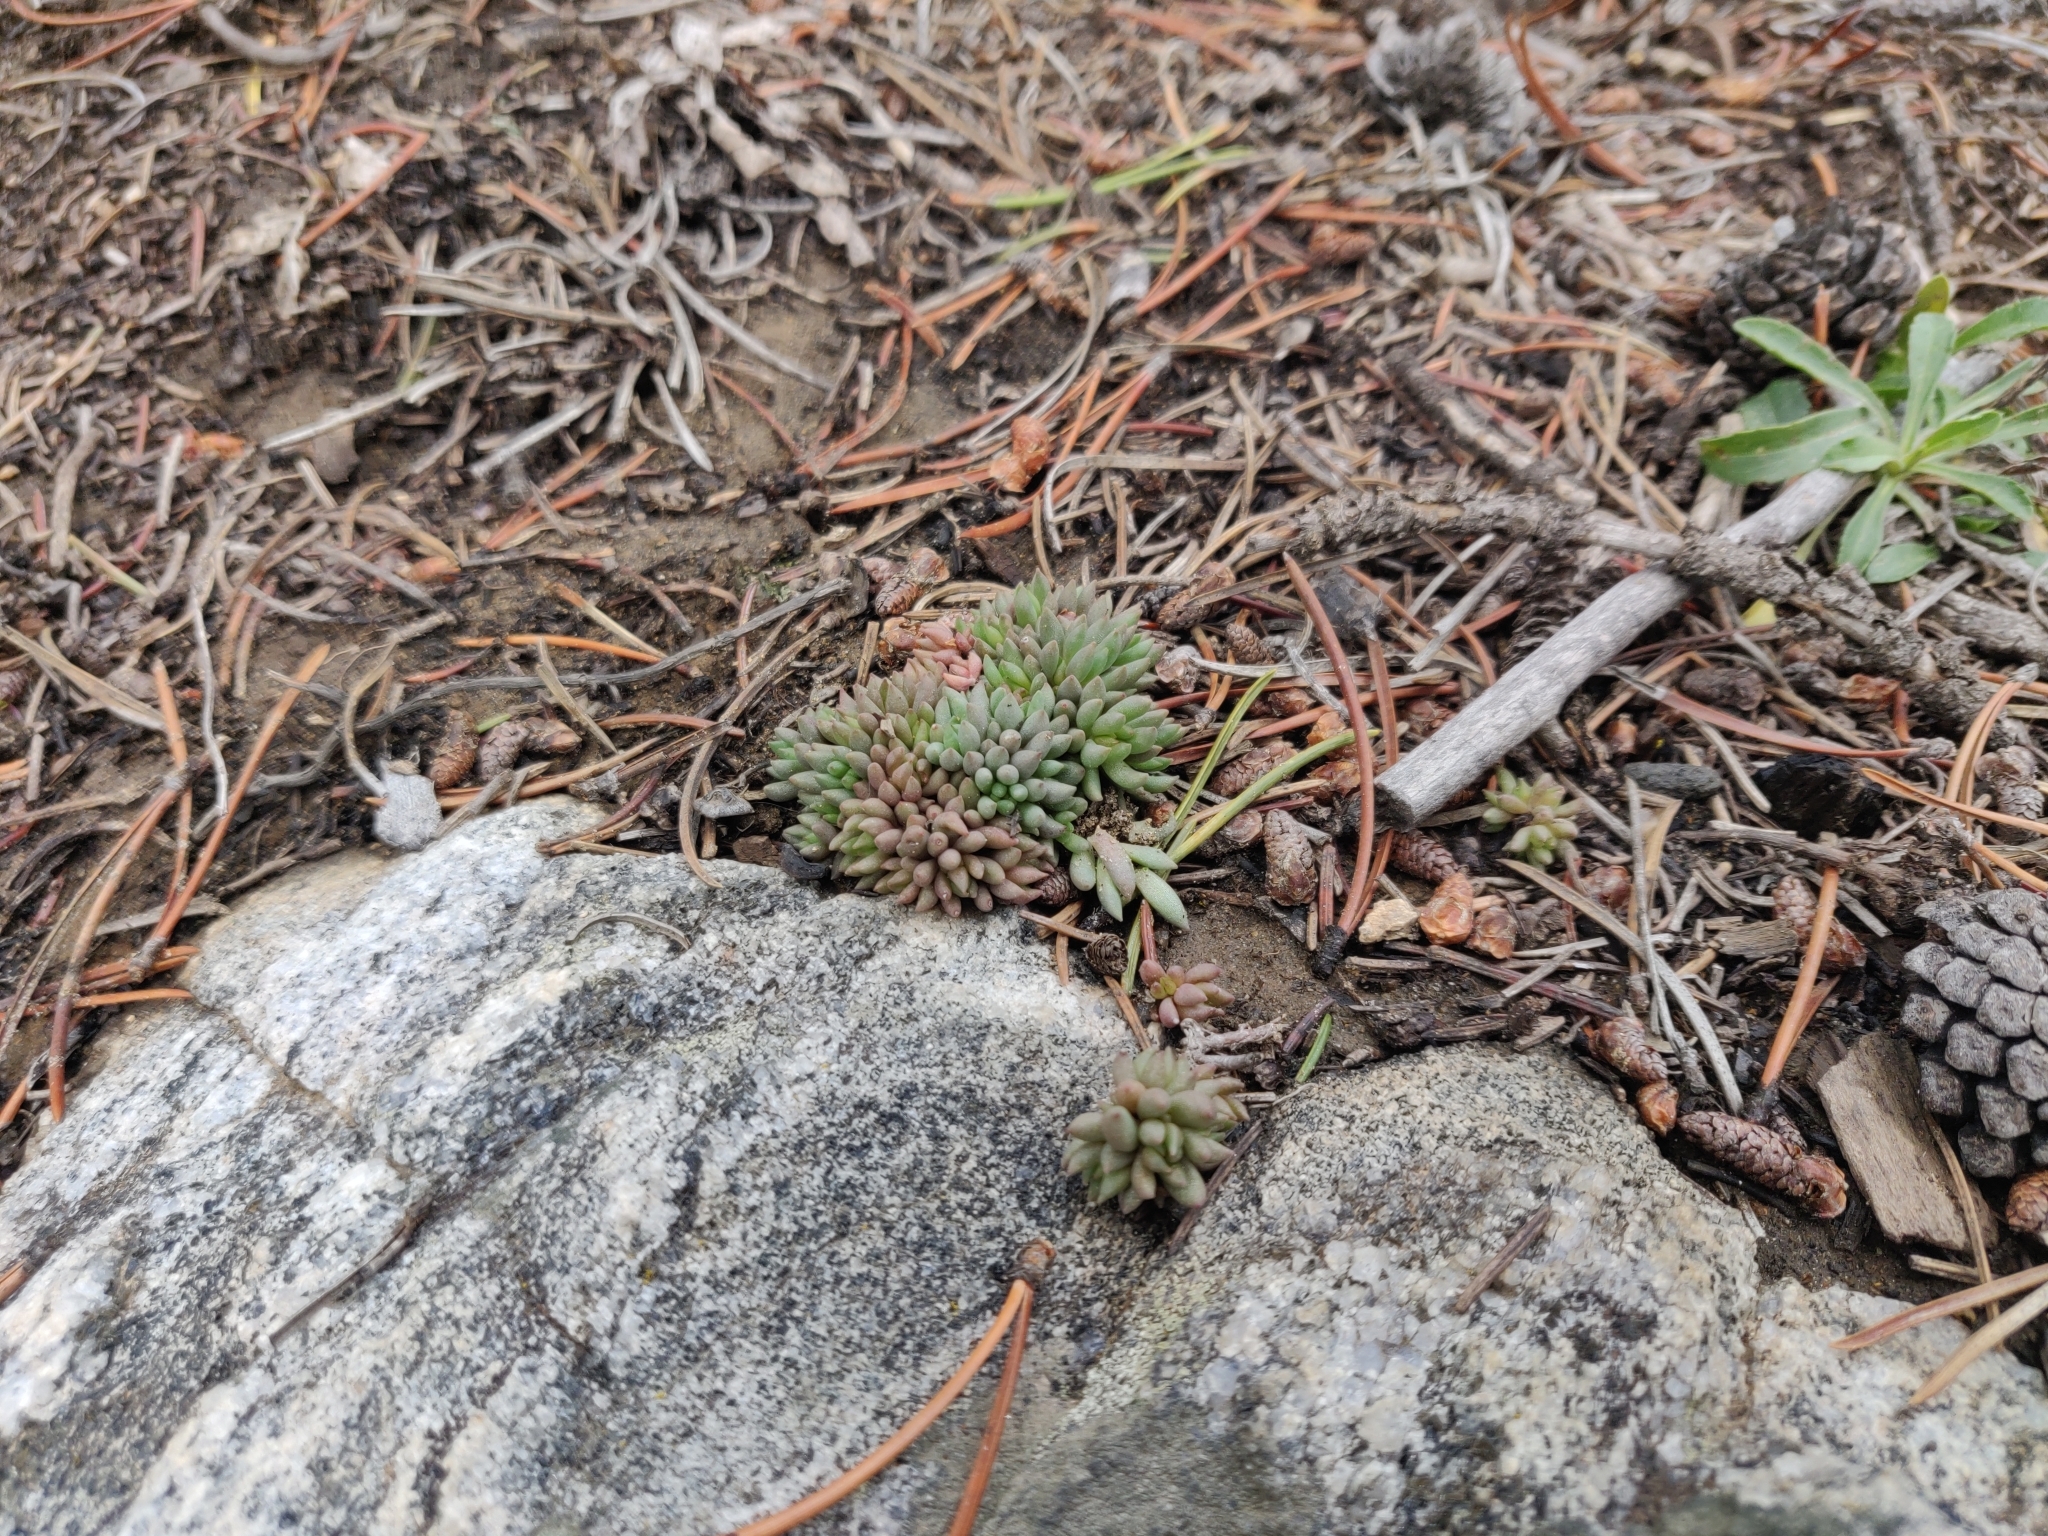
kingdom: Plantae
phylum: Tracheophyta
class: Magnoliopsida
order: Saxifragales
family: Crassulaceae
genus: Sedum
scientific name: Sedum lanceolatum
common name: Common stonecrop
